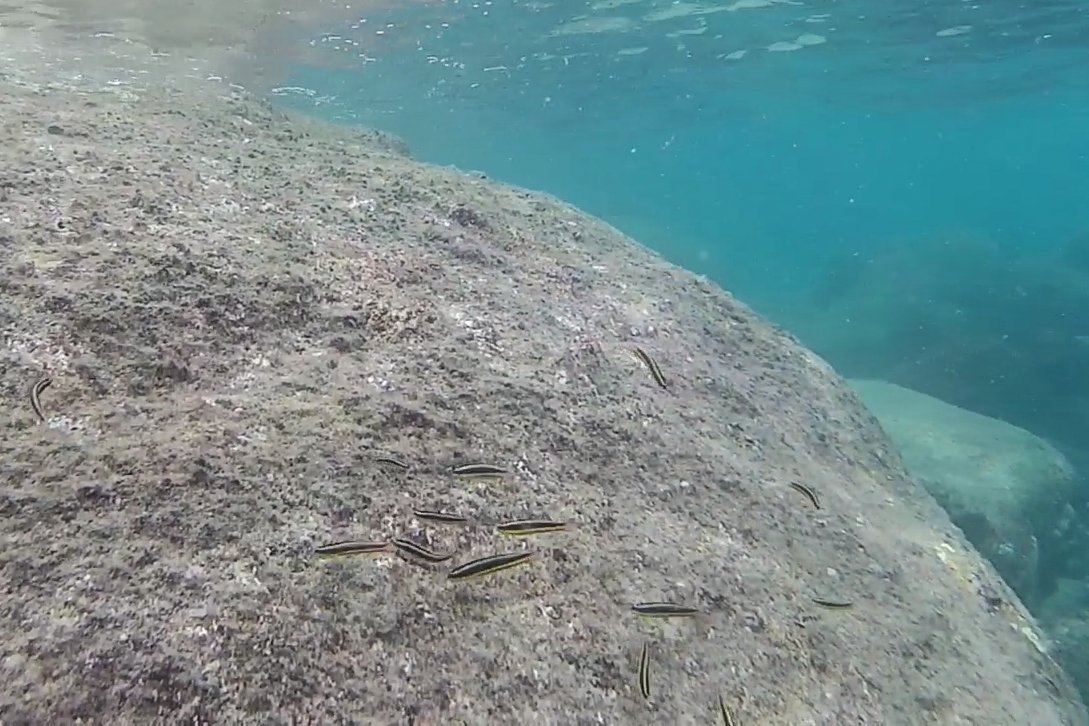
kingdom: Animalia
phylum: Chordata
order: Perciformes
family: Labridae
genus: Thalassoma
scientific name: Thalassoma lucasanum
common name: Cortez rainbow wrasse
